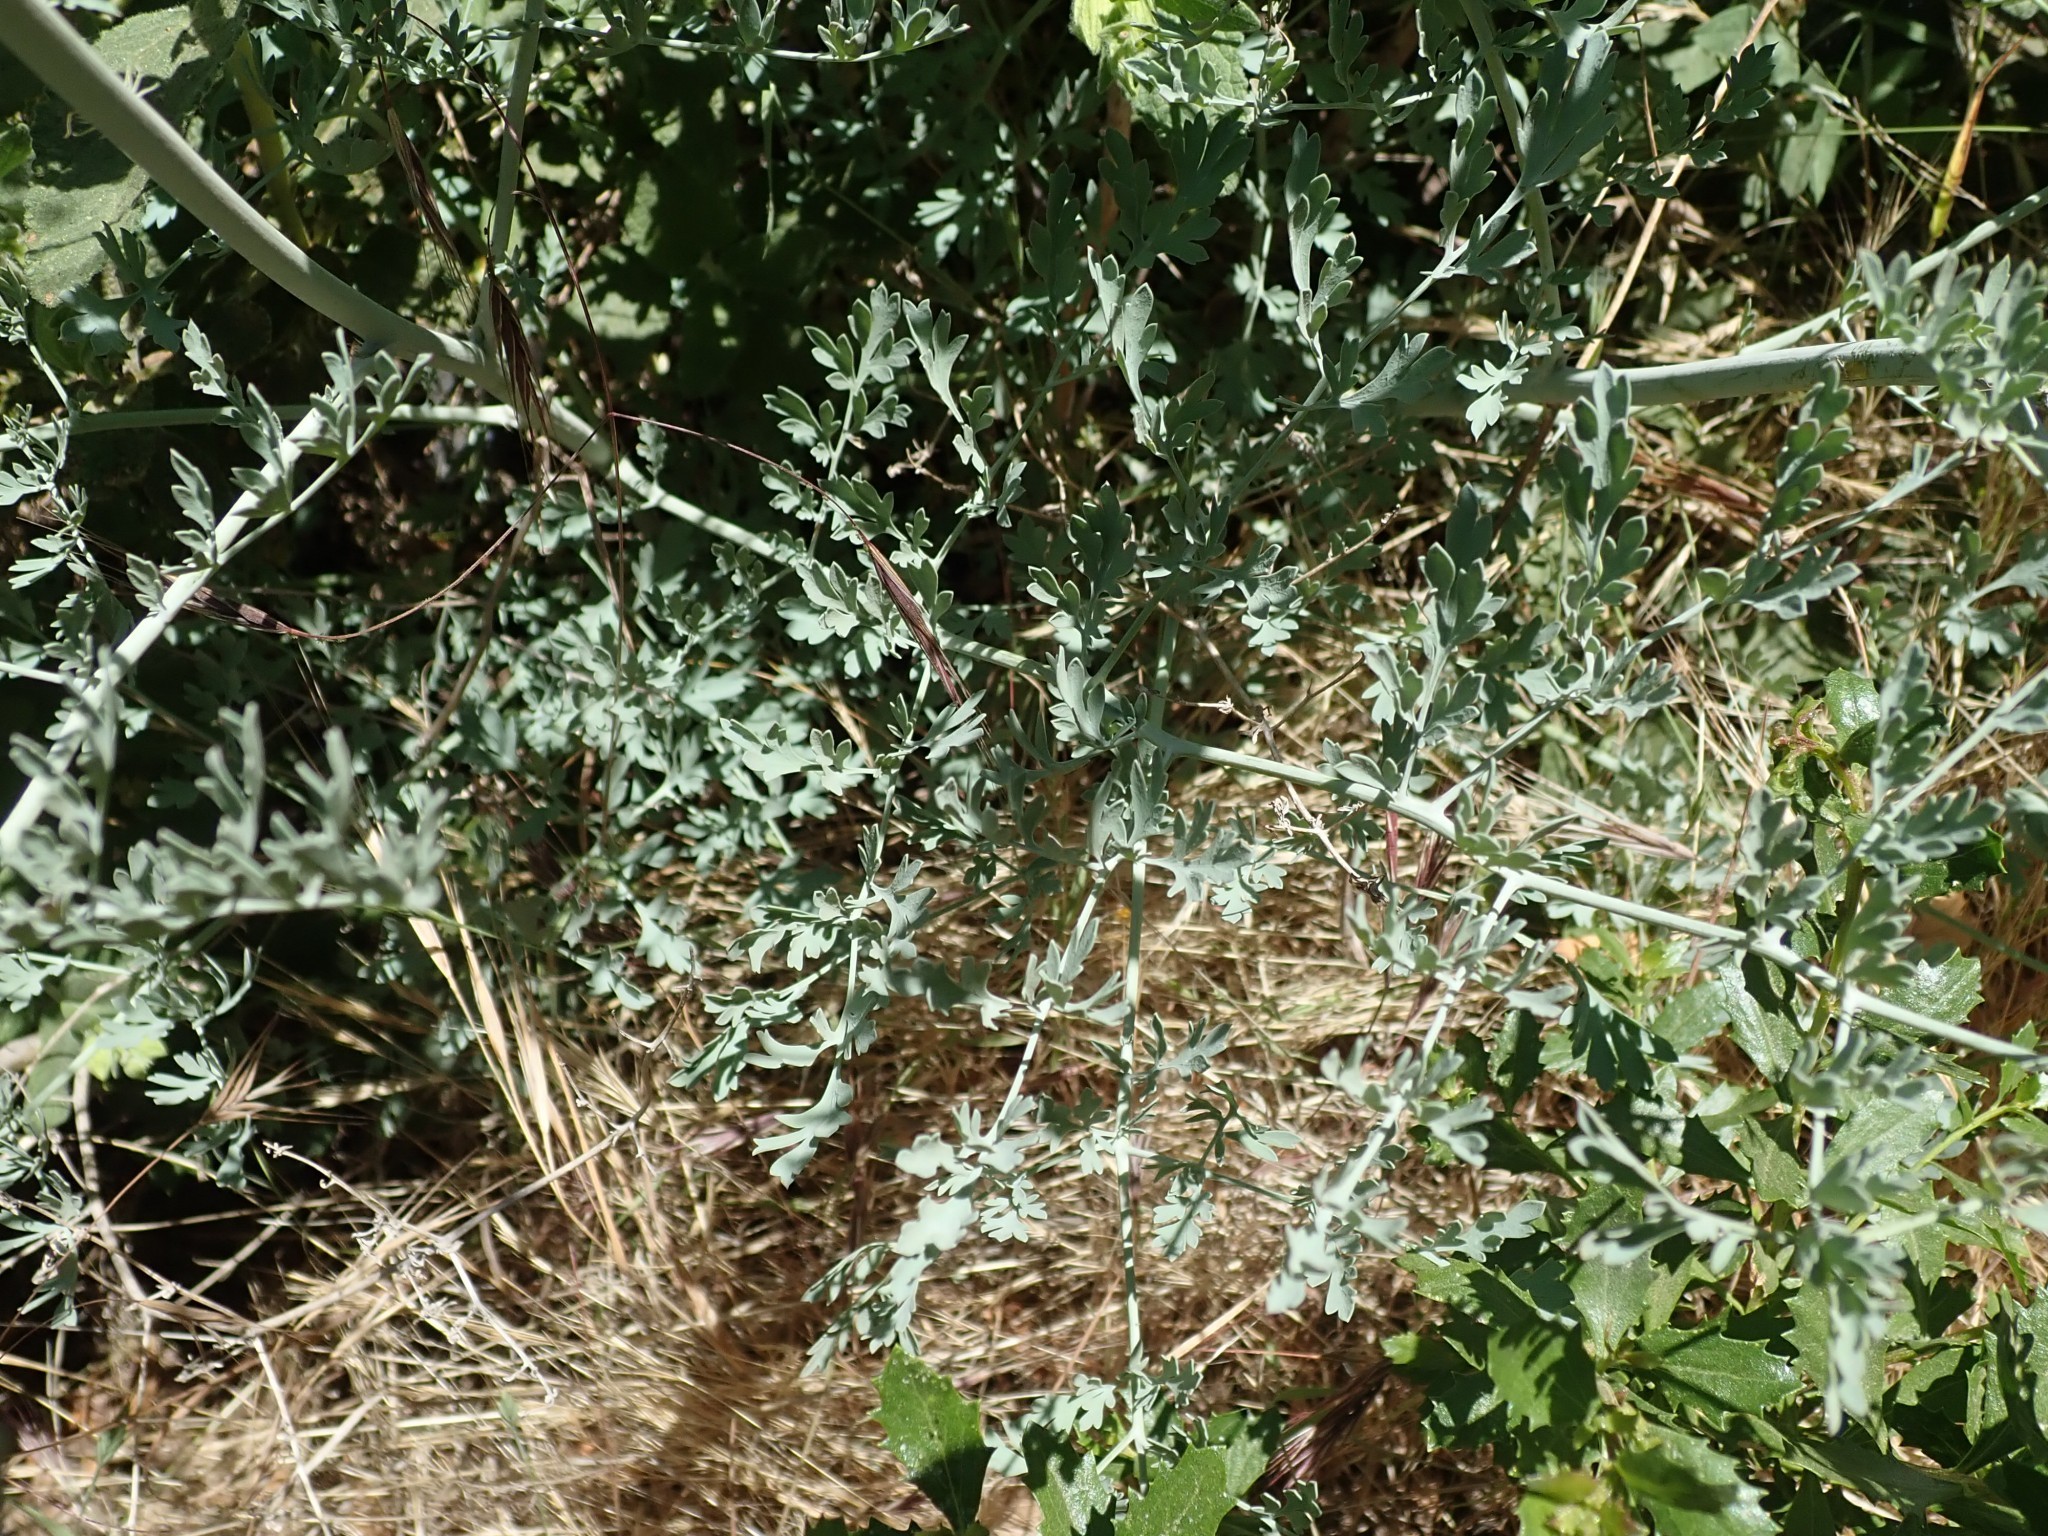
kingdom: Plantae
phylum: Tracheophyta
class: Magnoliopsida
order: Ranunculales
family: Papaveraceae
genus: Ehrendorferia
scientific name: Ehrendorferia chrysantha
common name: Golden eardrops
